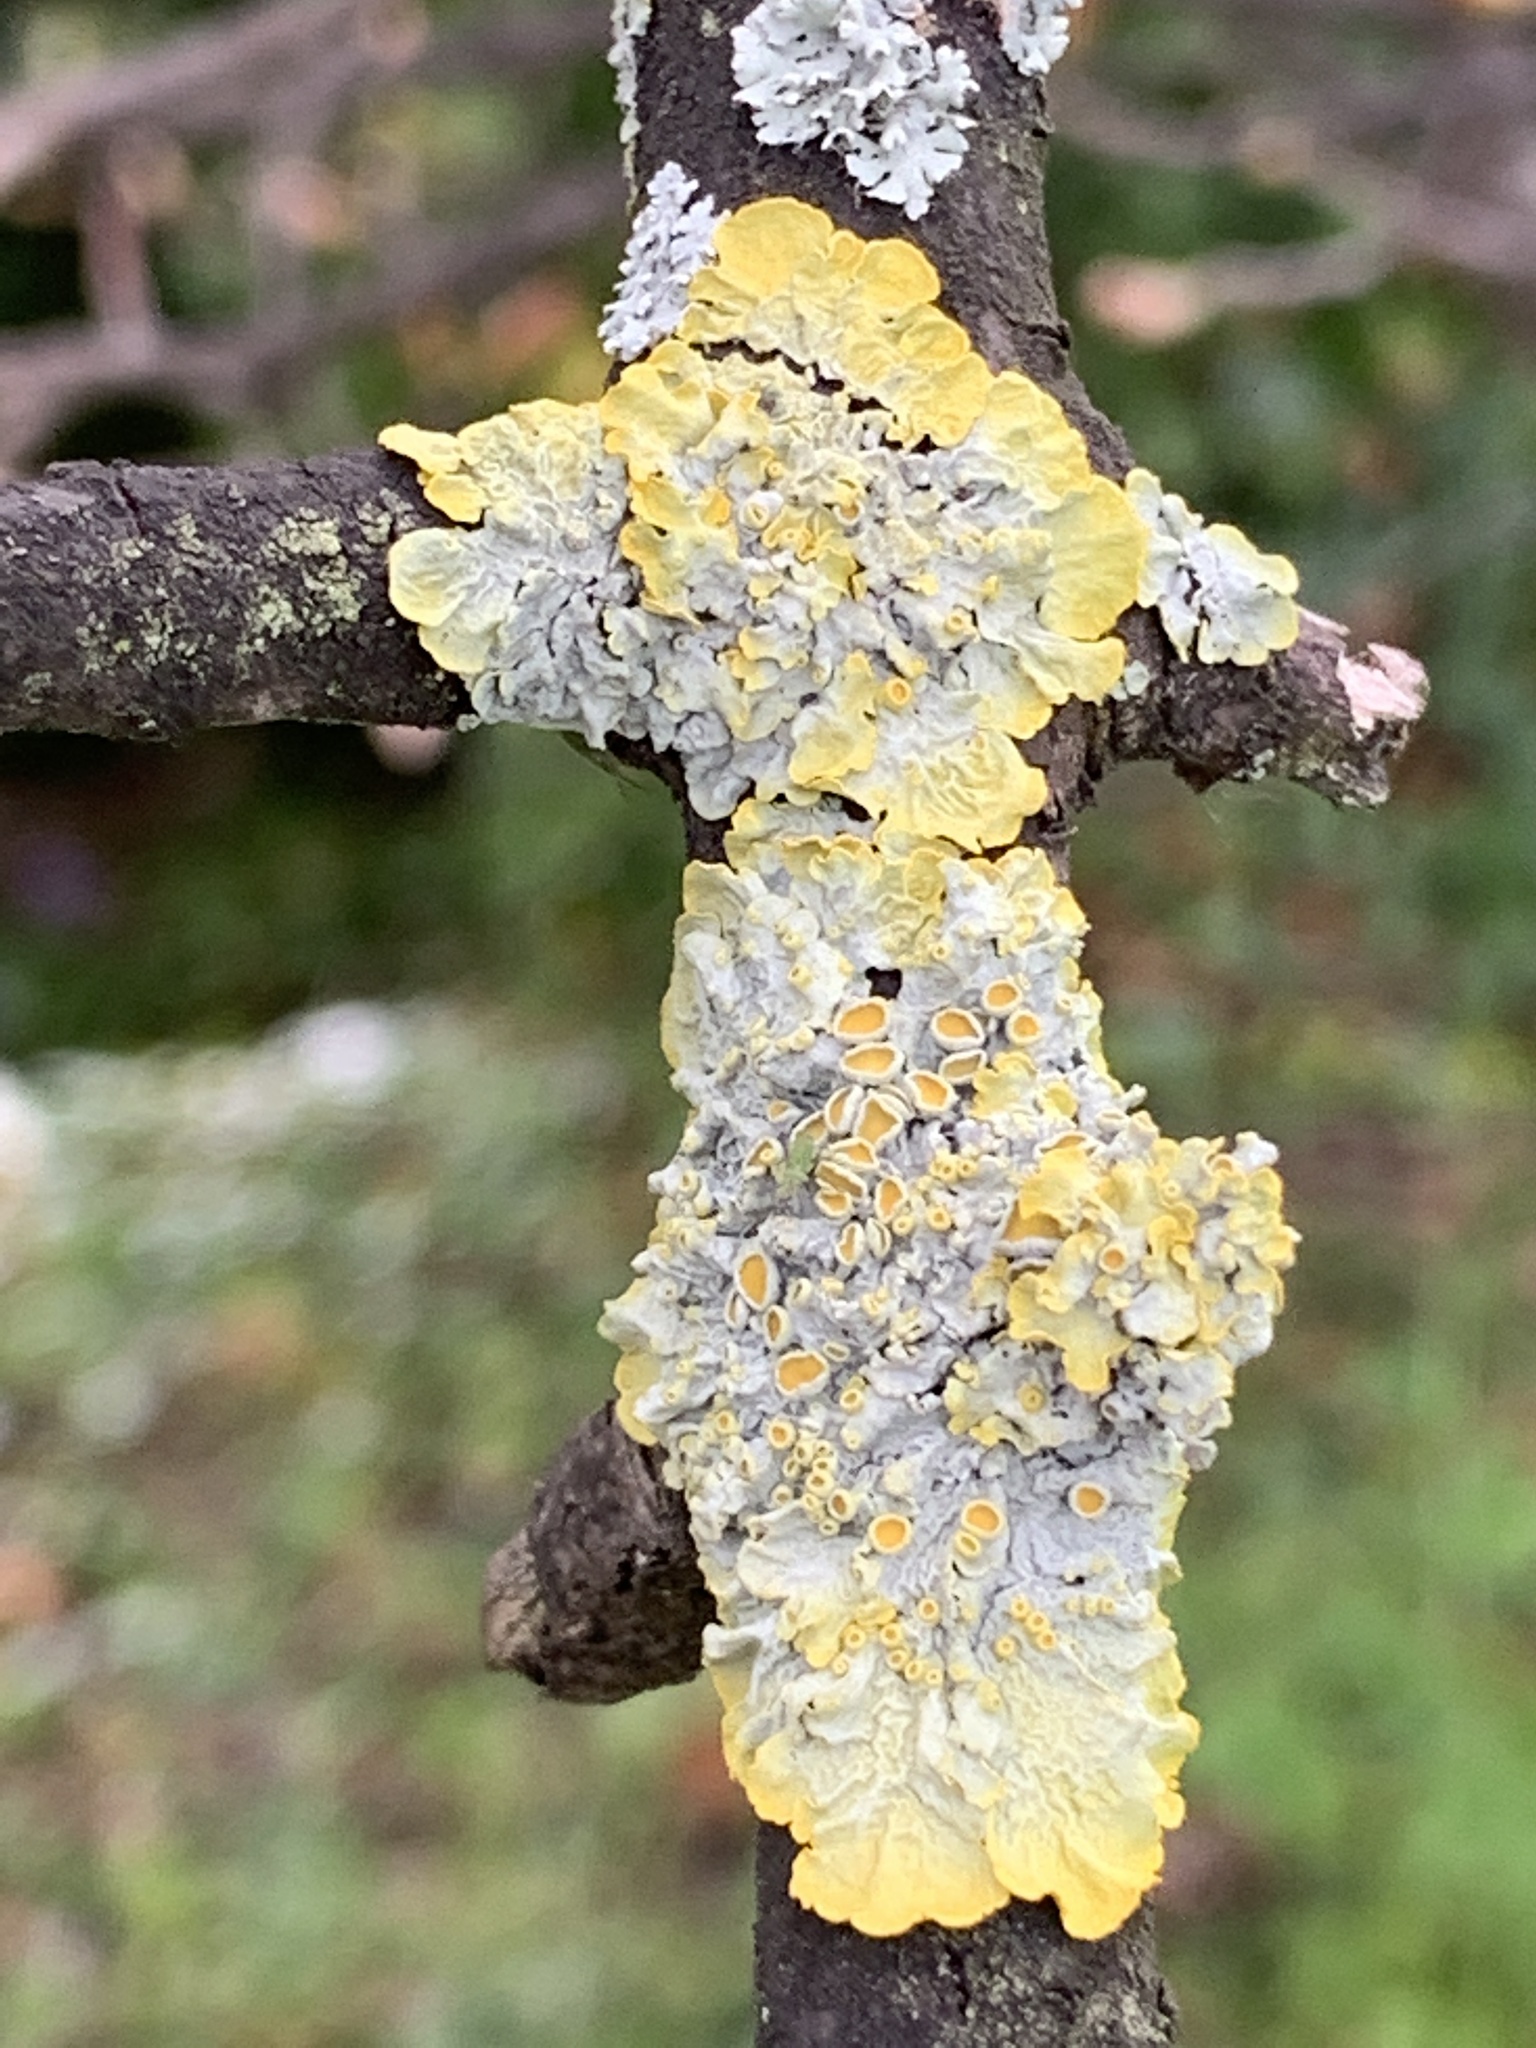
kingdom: Fungi
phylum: Ascomycota
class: Lecanoromycetes
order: Teloschistales
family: Teloschistaceae
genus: Xanthoria
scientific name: Xanthoria parietina
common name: Common orange lichen
